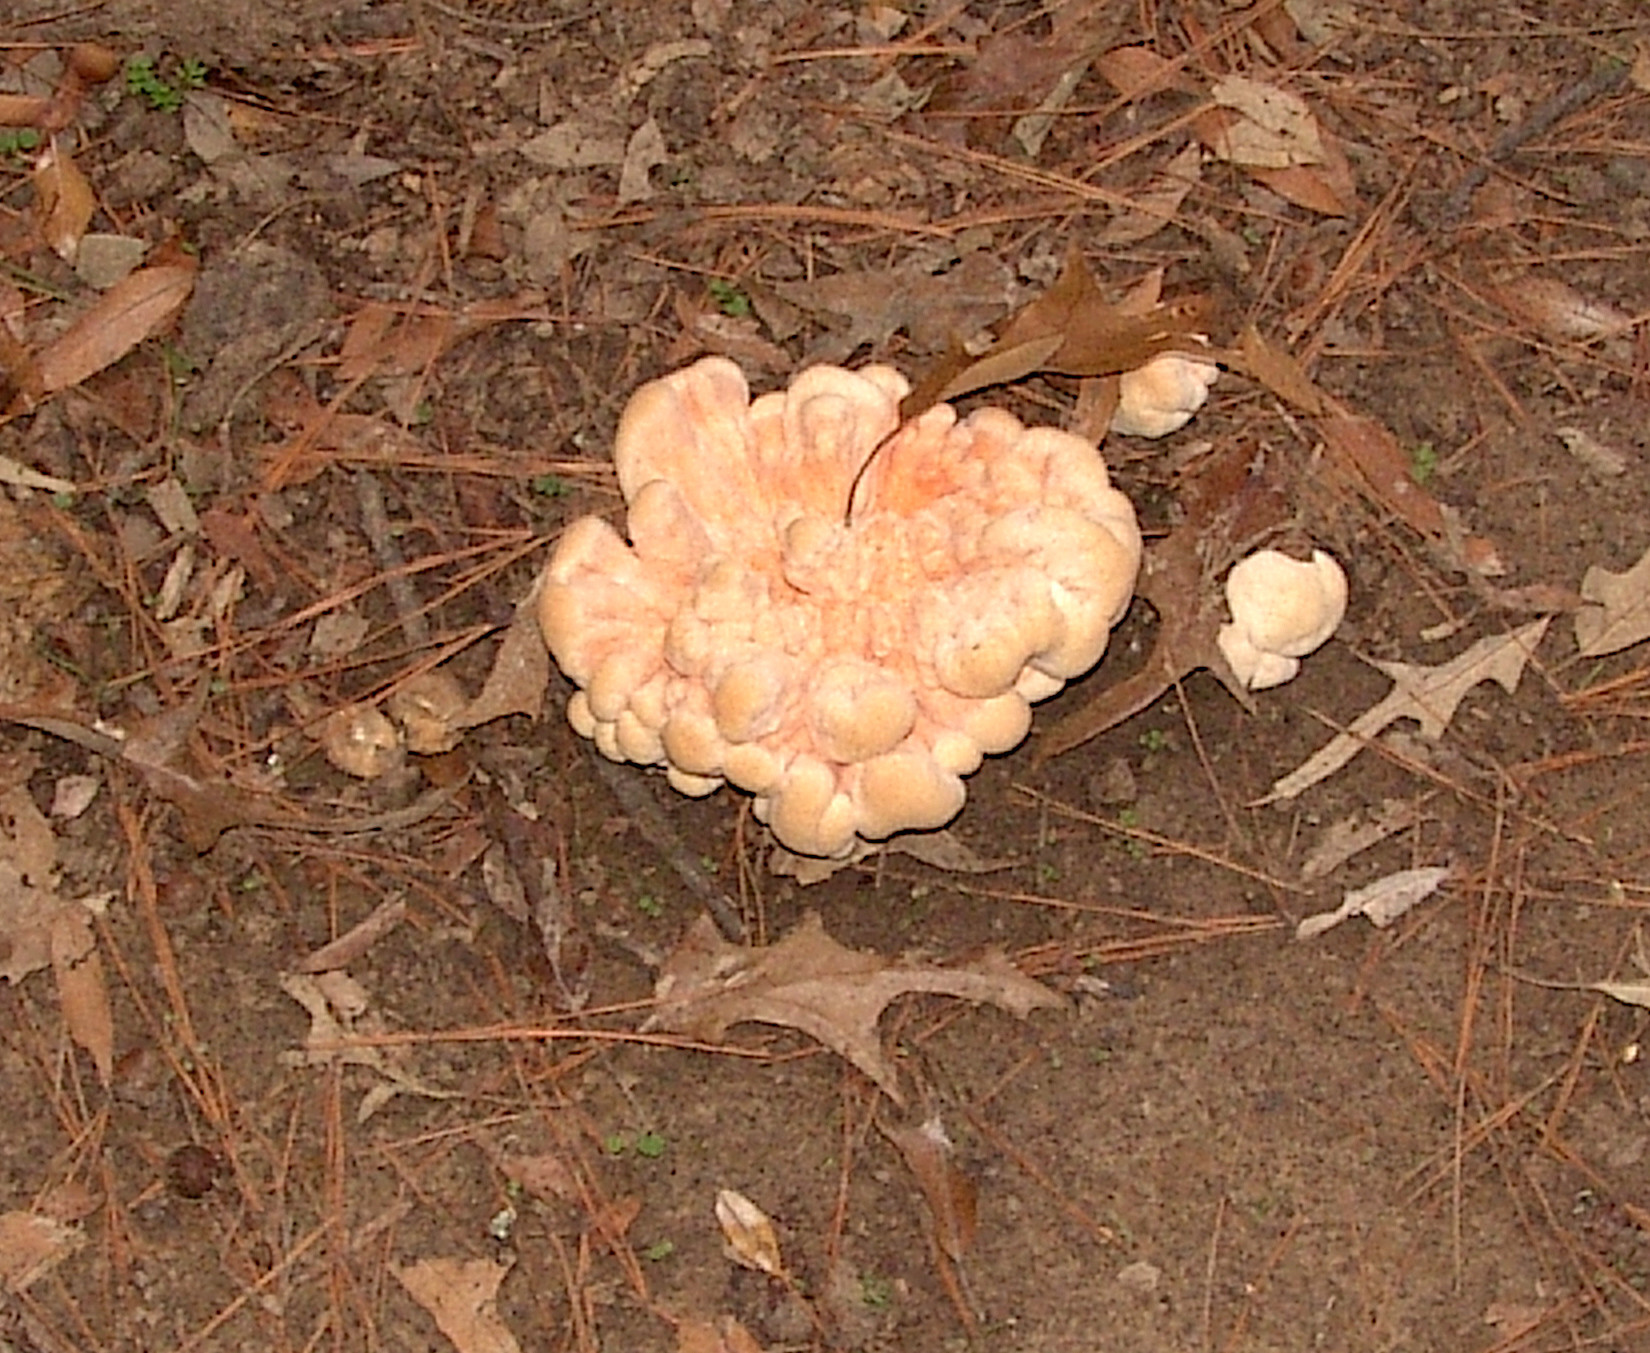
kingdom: Fungi
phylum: Basidiomycota
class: Agaricomycetes
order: Polyporales
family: Laetiporaceae
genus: Laetiporus
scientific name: Laetiporus sulphureus
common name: Chicken of the woods
